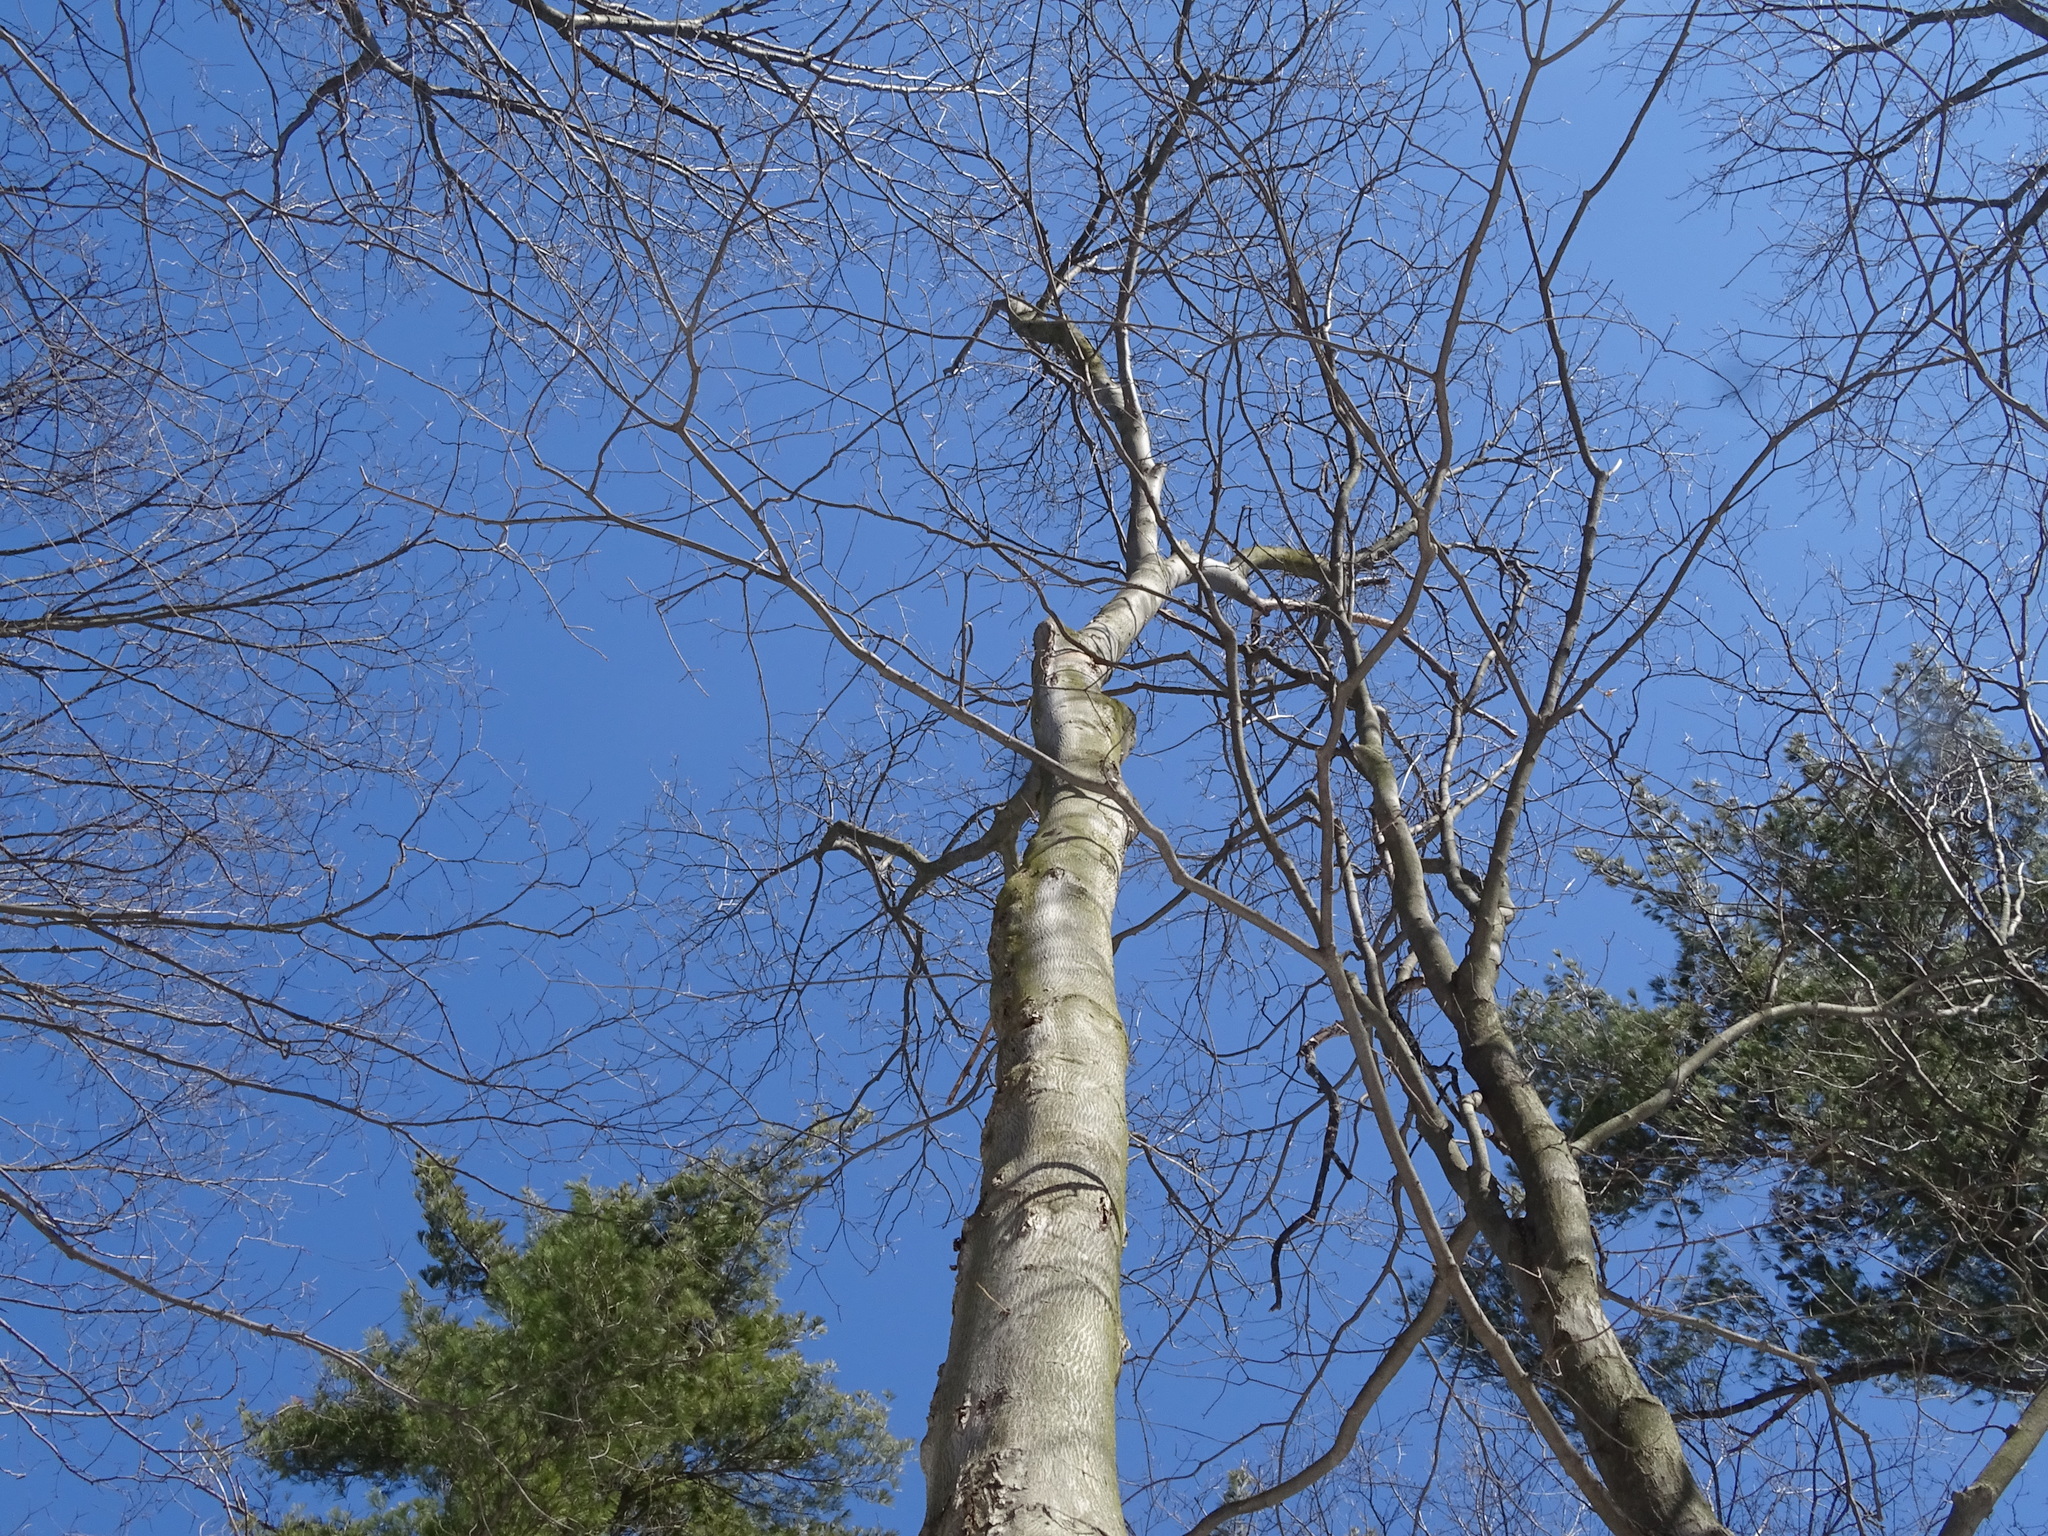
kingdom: Plantae
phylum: Tracheophyta
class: Magnoliopsida
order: Fagales
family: Juglandaceae
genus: Carya
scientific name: Carya cordiformis
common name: Bitternut hickory
